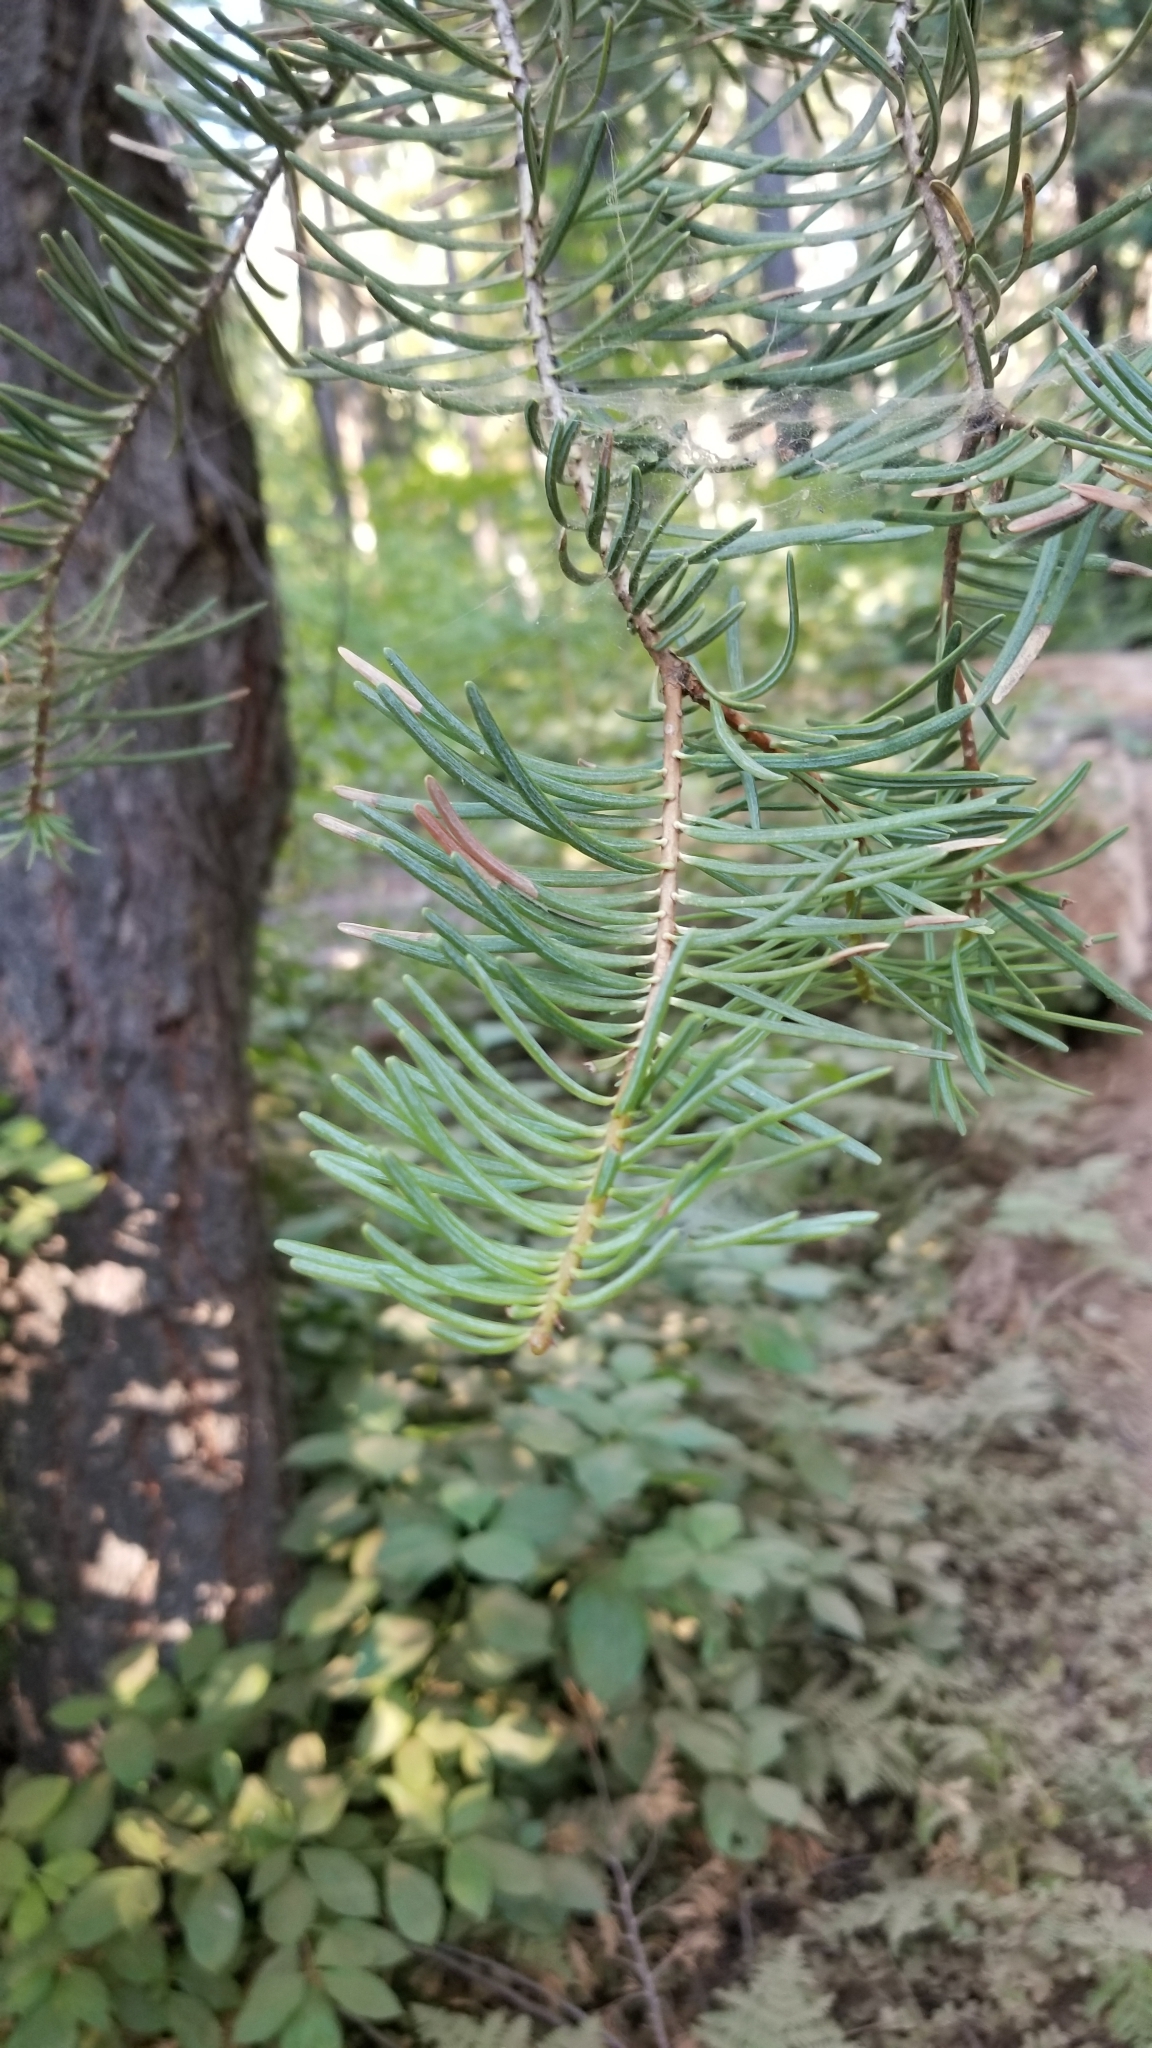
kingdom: Plantae
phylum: Tracheophyta
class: Pinopsida
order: Pinales
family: Pinaceae
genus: Abies
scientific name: Abies concolor
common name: Colorado fir
